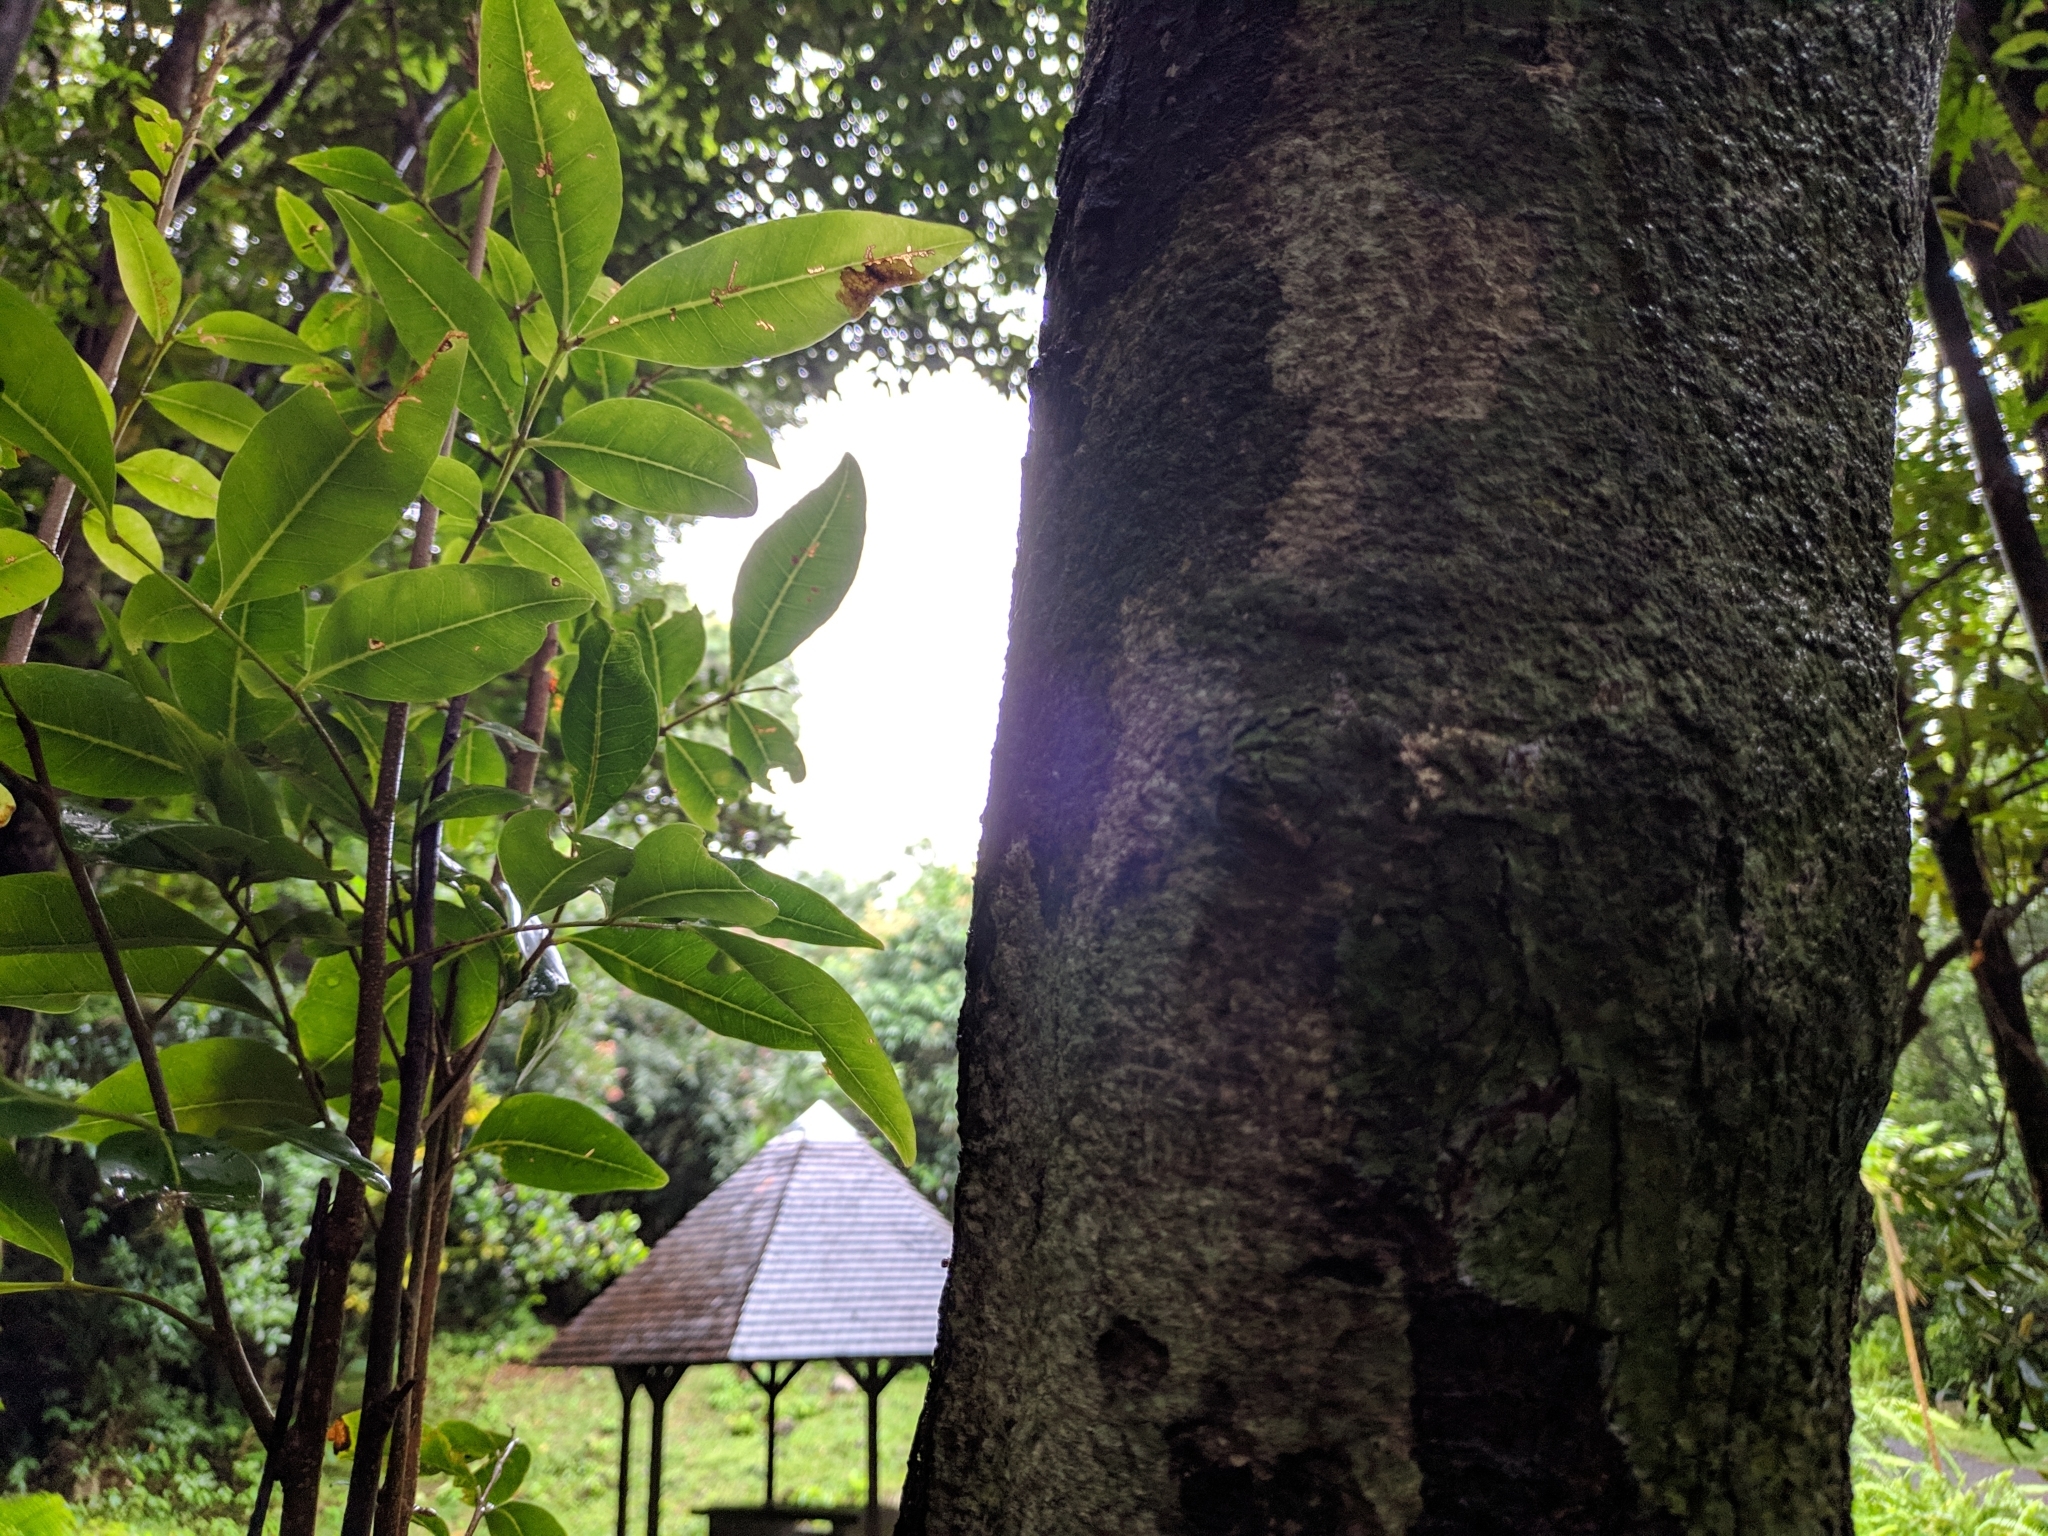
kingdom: Plantae
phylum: Tracheophyta
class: Magnoliopsida
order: Sapindales
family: Sapindaceae
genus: Doratoxylon
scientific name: Doratoxylon apetalum
